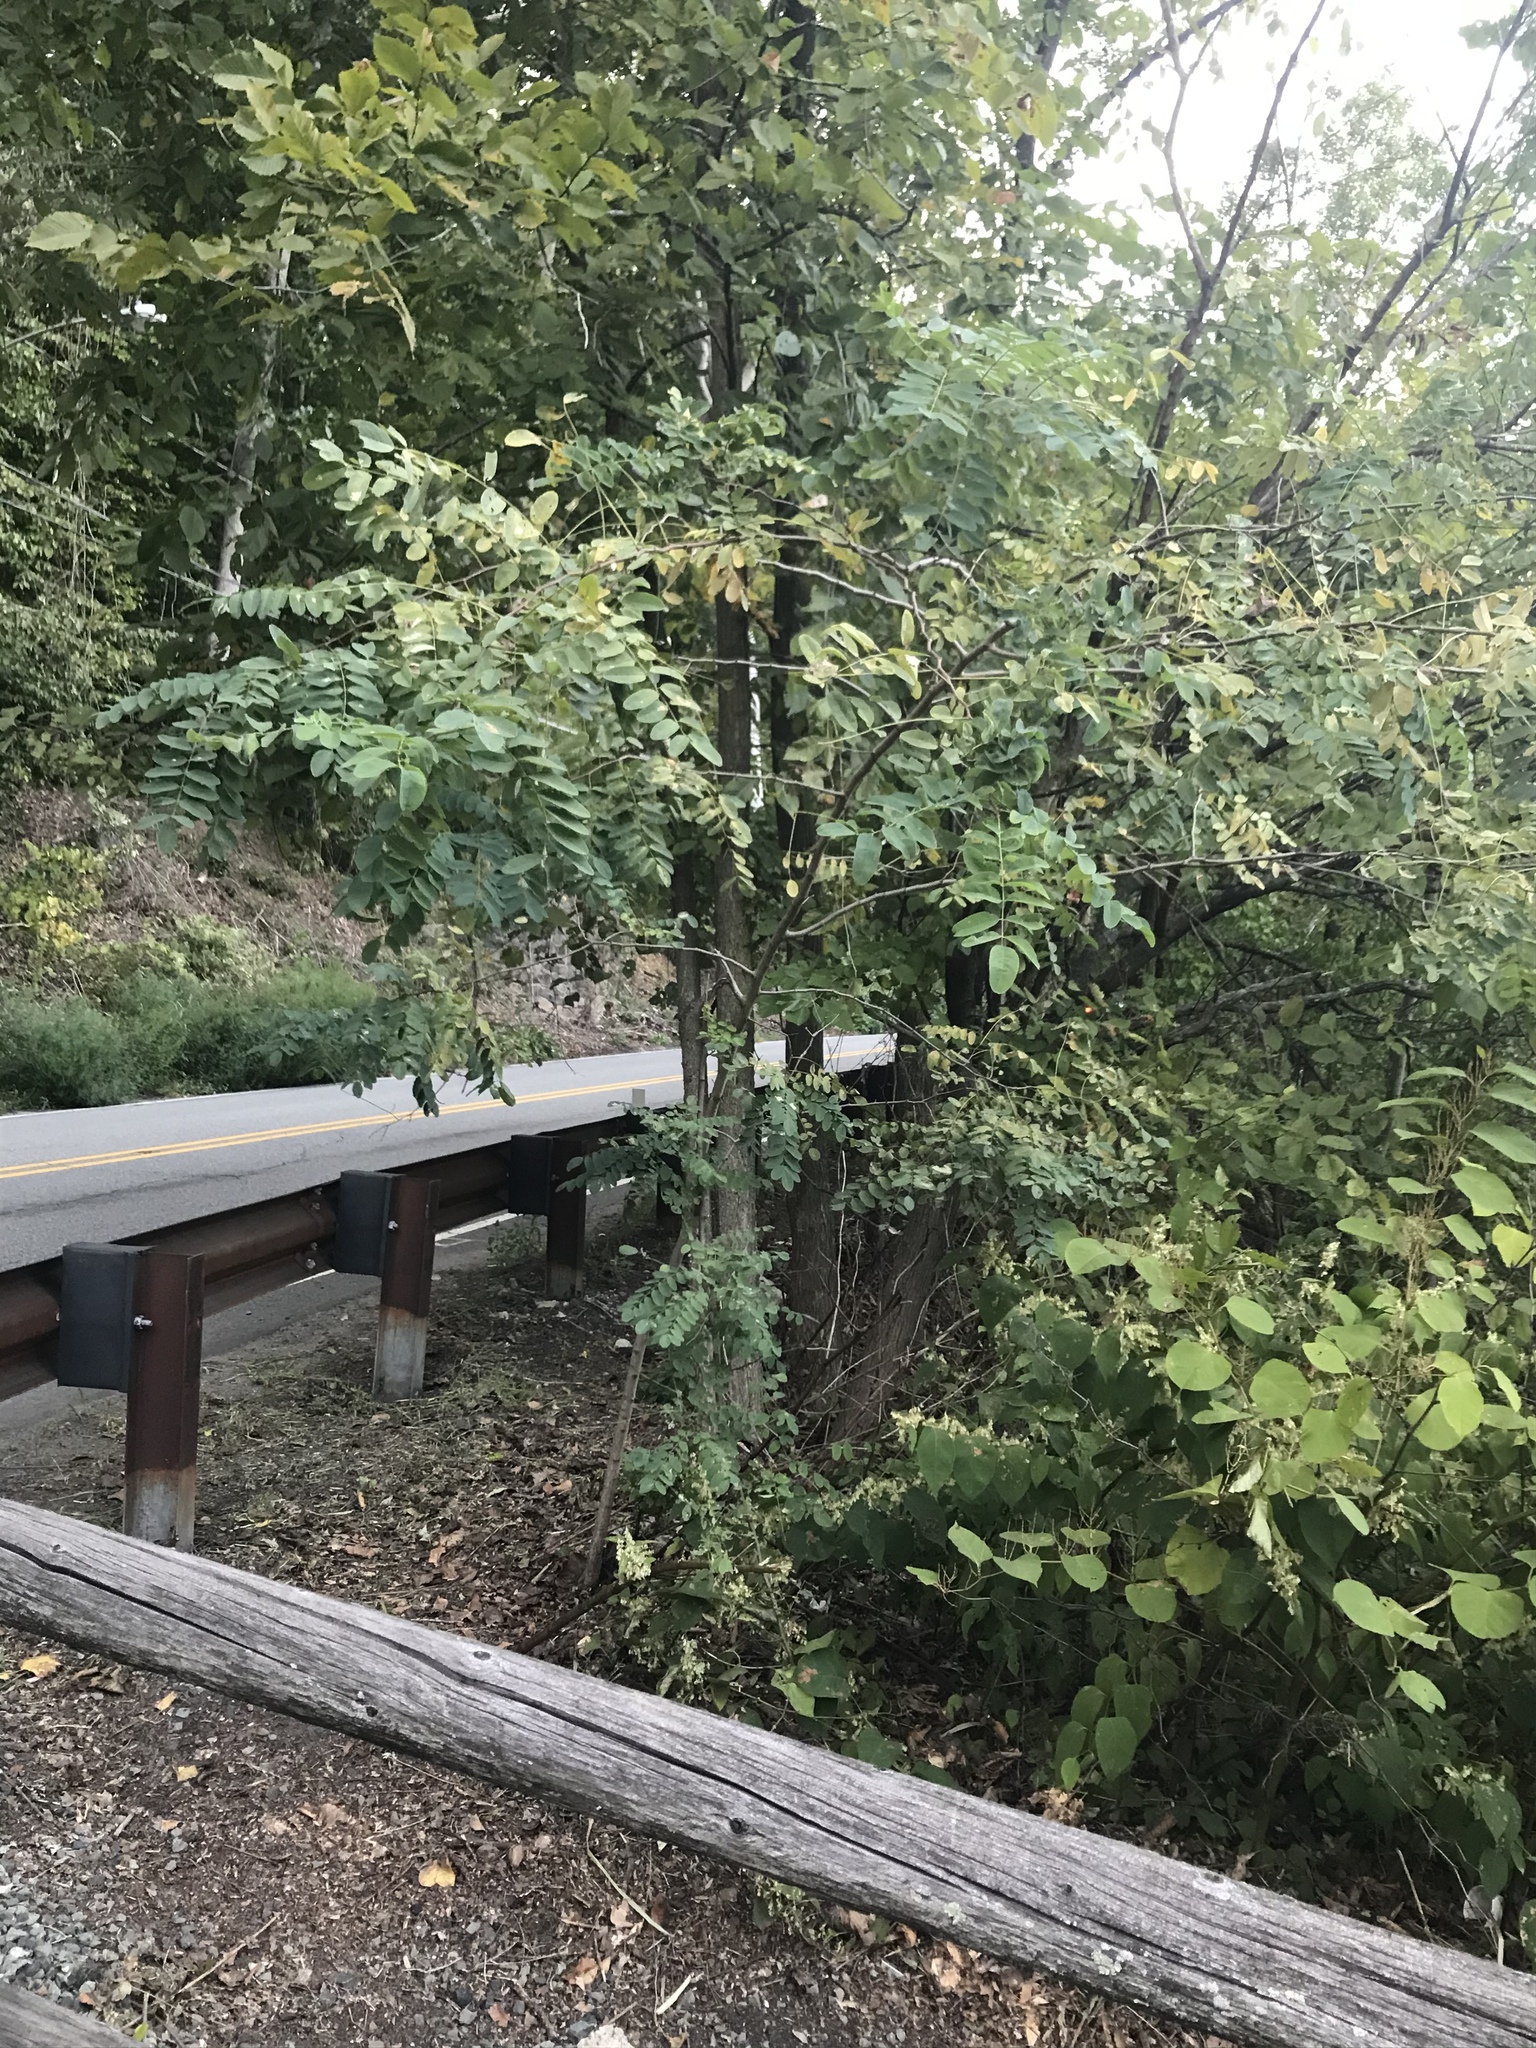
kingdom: Plantae
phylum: Tracheophyta
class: Magnoliopsida
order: Fabales
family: Fabaceae
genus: Robinia
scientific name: Robinia pseudoacacia
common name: Black locust
